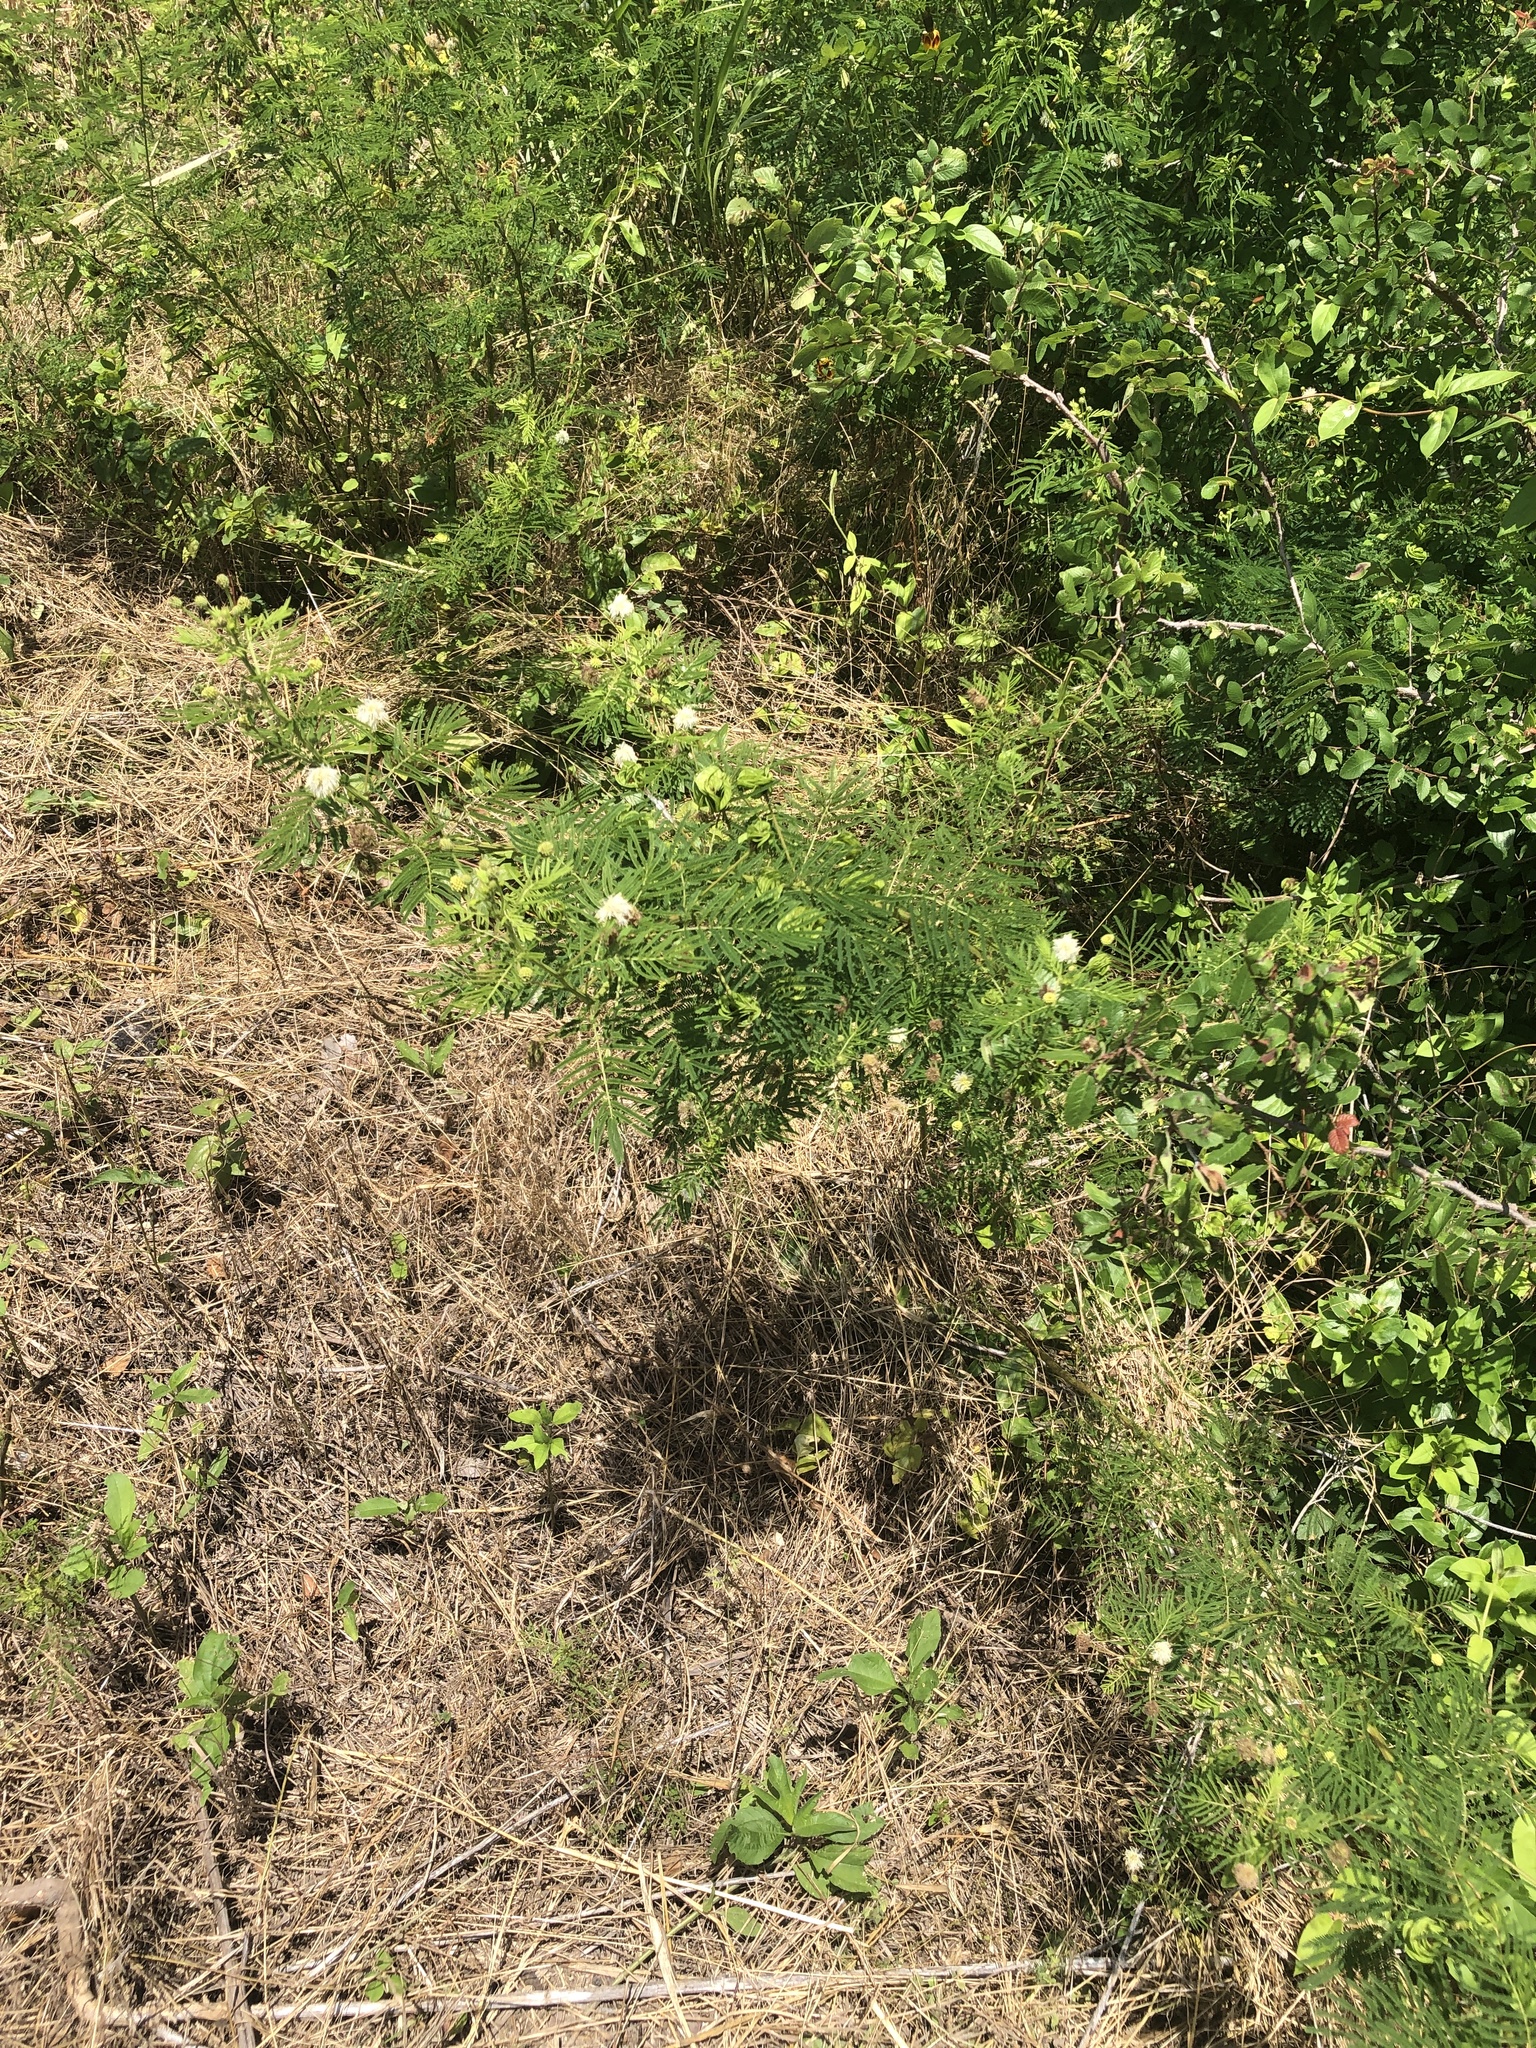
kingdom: Plantae
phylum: Tracheophyta
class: Magnoliopsida
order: Fabales
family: Fabaceae
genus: Desmanthus
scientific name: Desmanthus illinoensis
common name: Illinois bundle-flower
